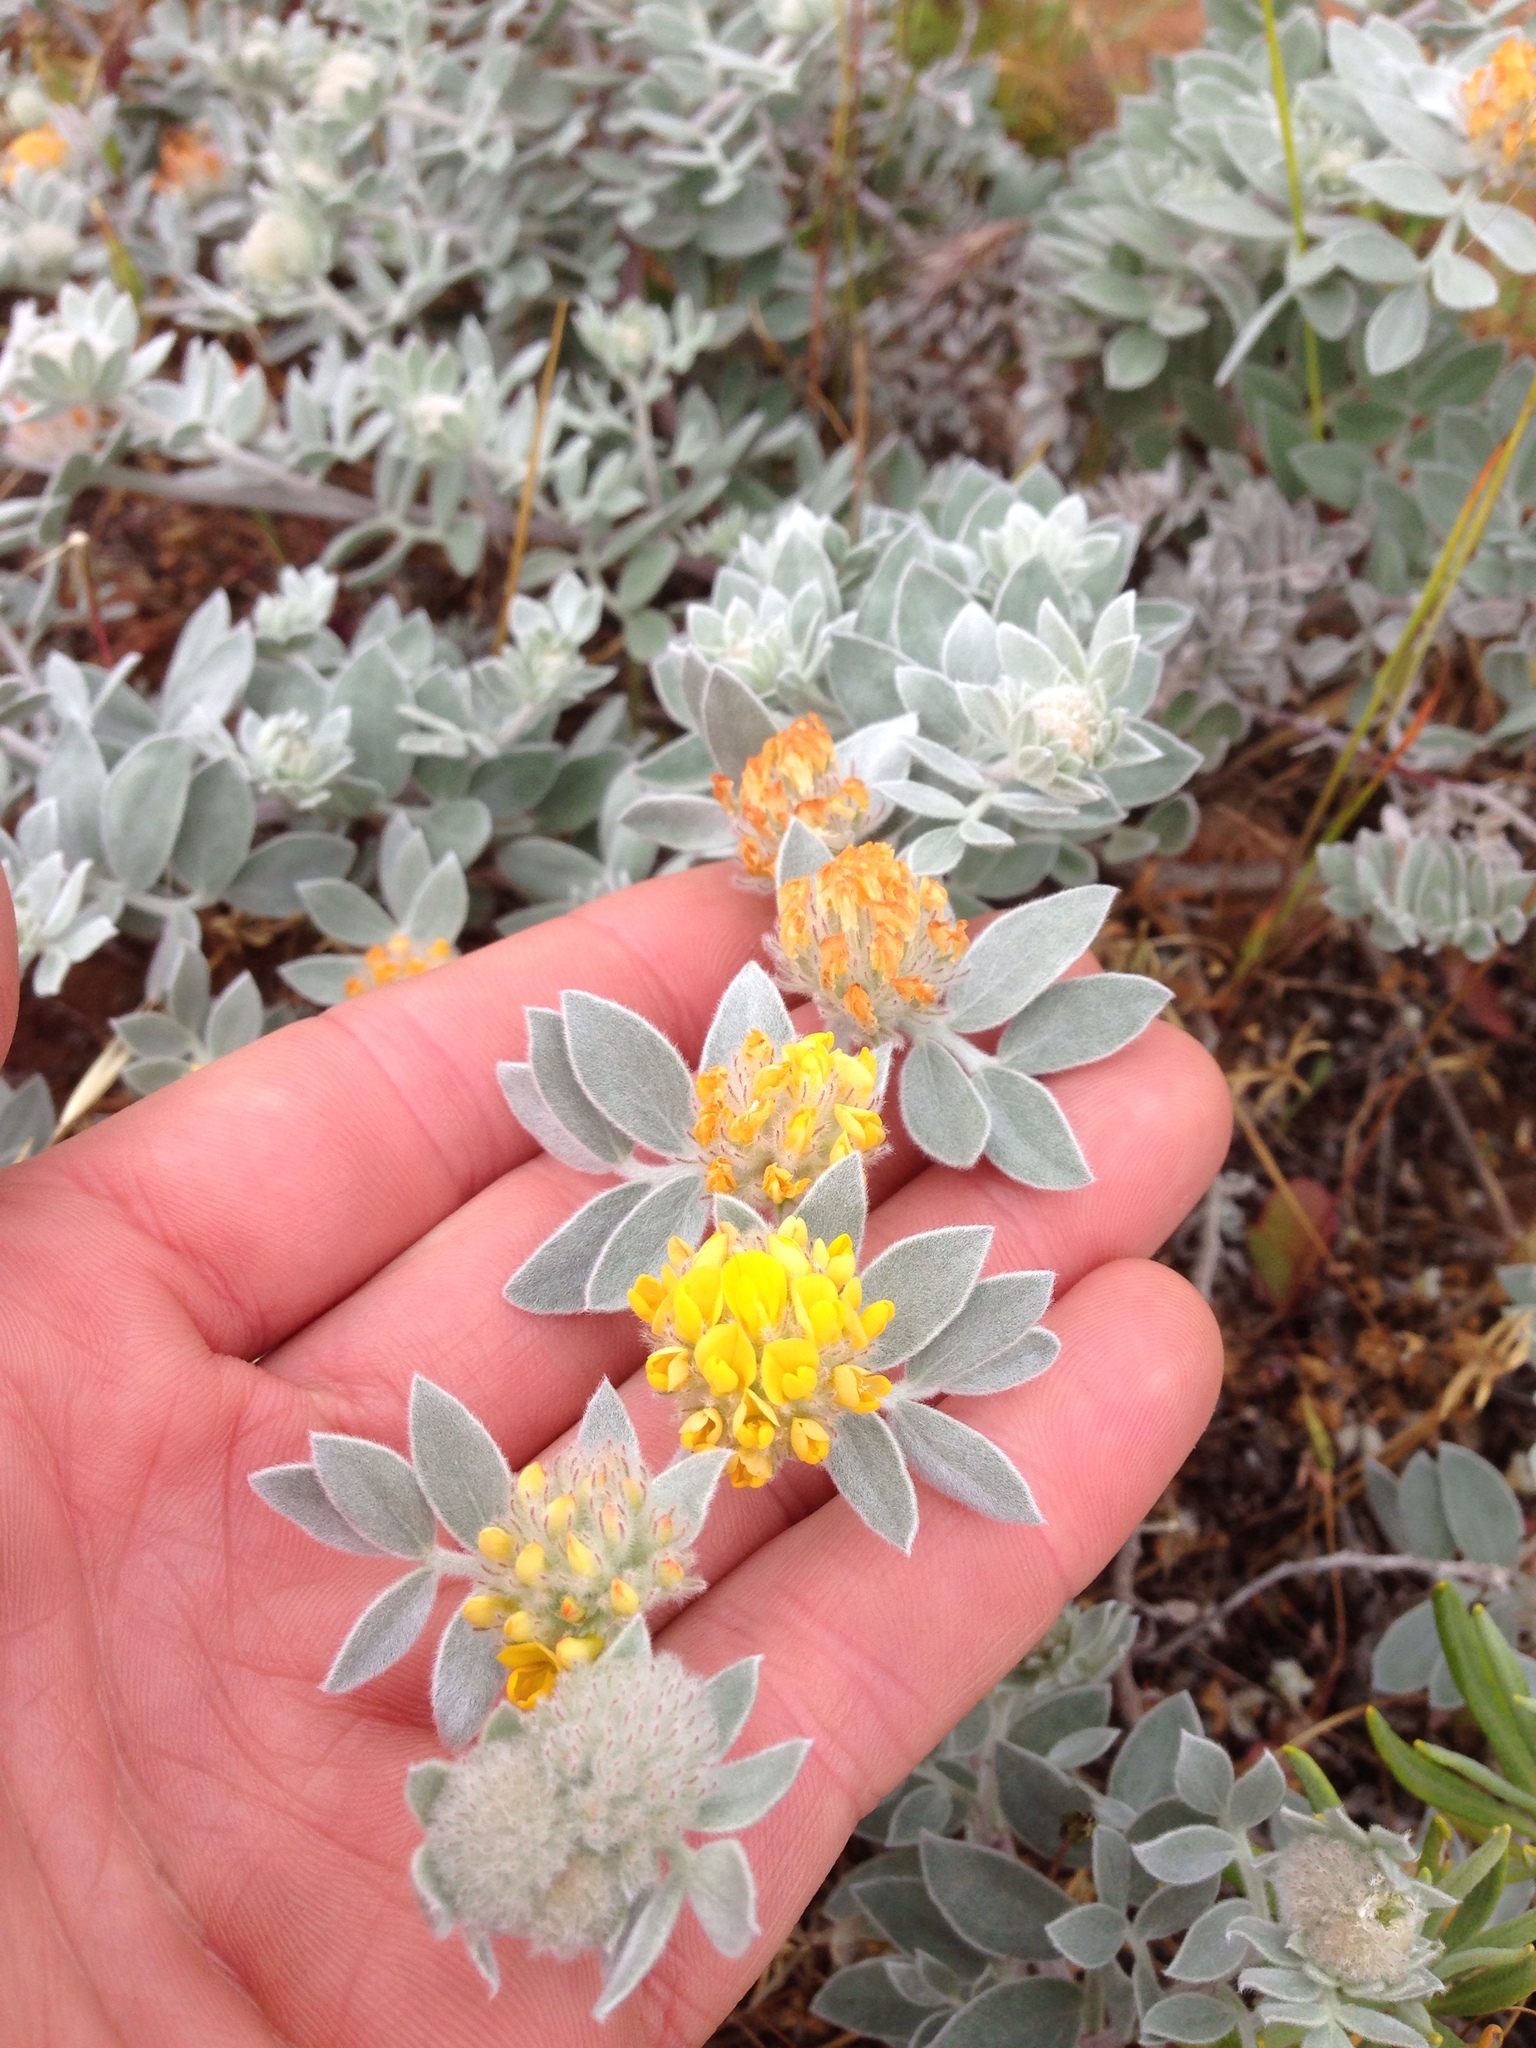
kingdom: Plantae
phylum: Tracheophyta
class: Magnoliopsida
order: Fabales
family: Fabaceae
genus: Acmispon
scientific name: Acmispon argophyllus
